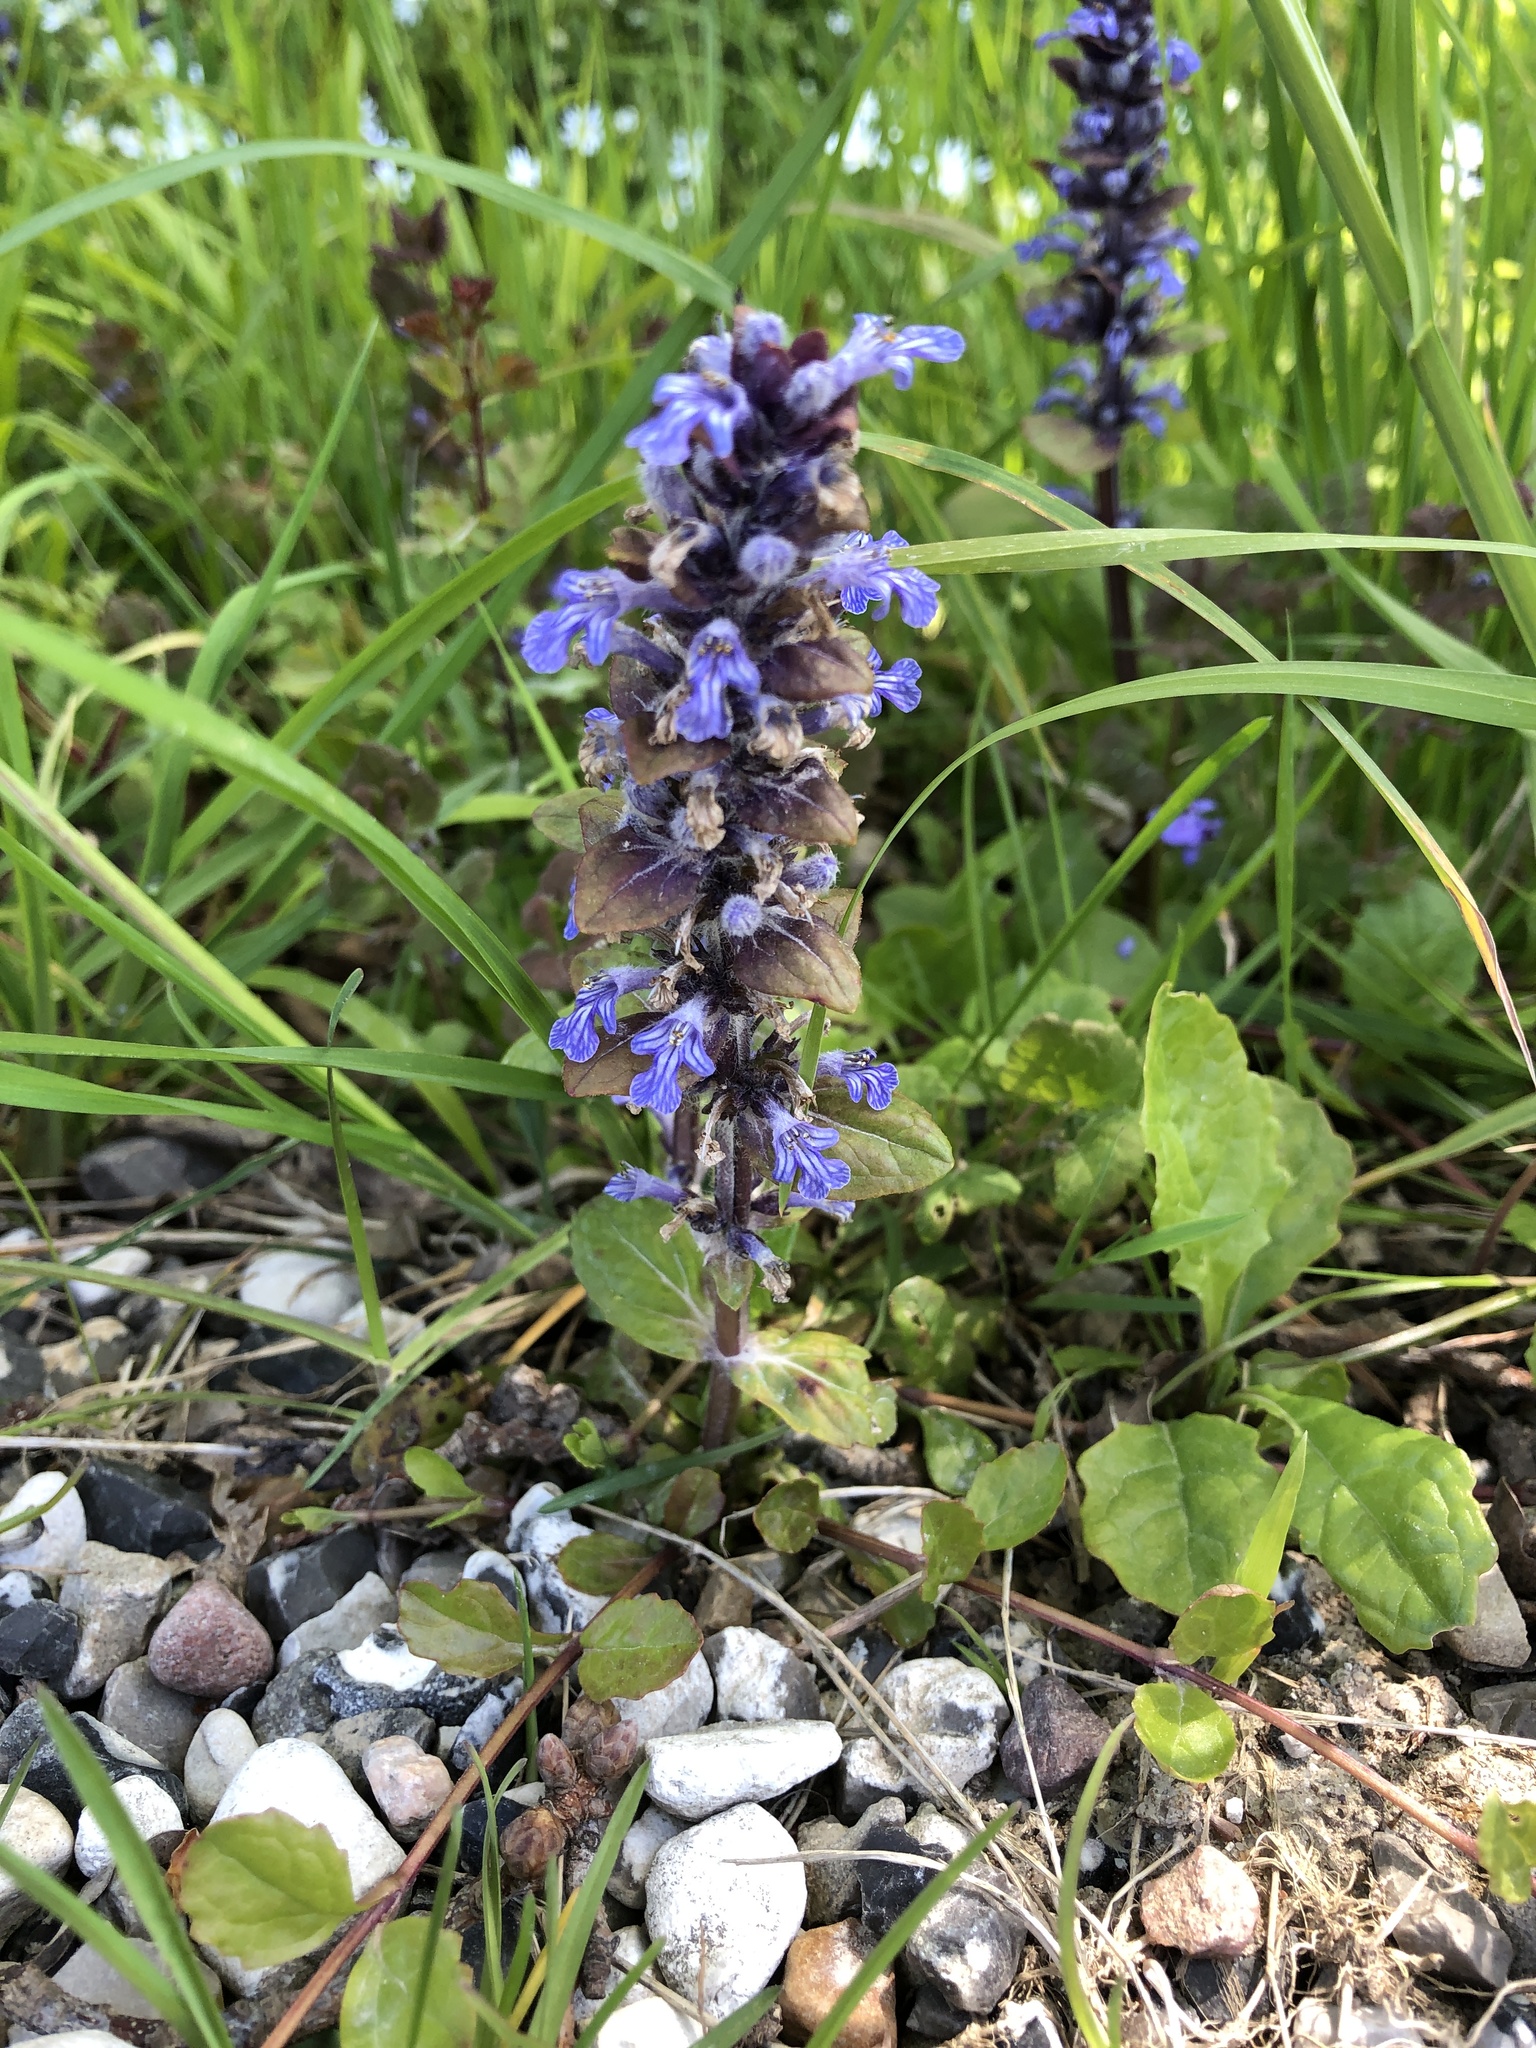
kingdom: Plantae
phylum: Tracheophyta
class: Magnoliopsida
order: Lamiales
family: Lamiaceae
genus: Ajuga
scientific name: Ajuga reptans
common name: Bugle
